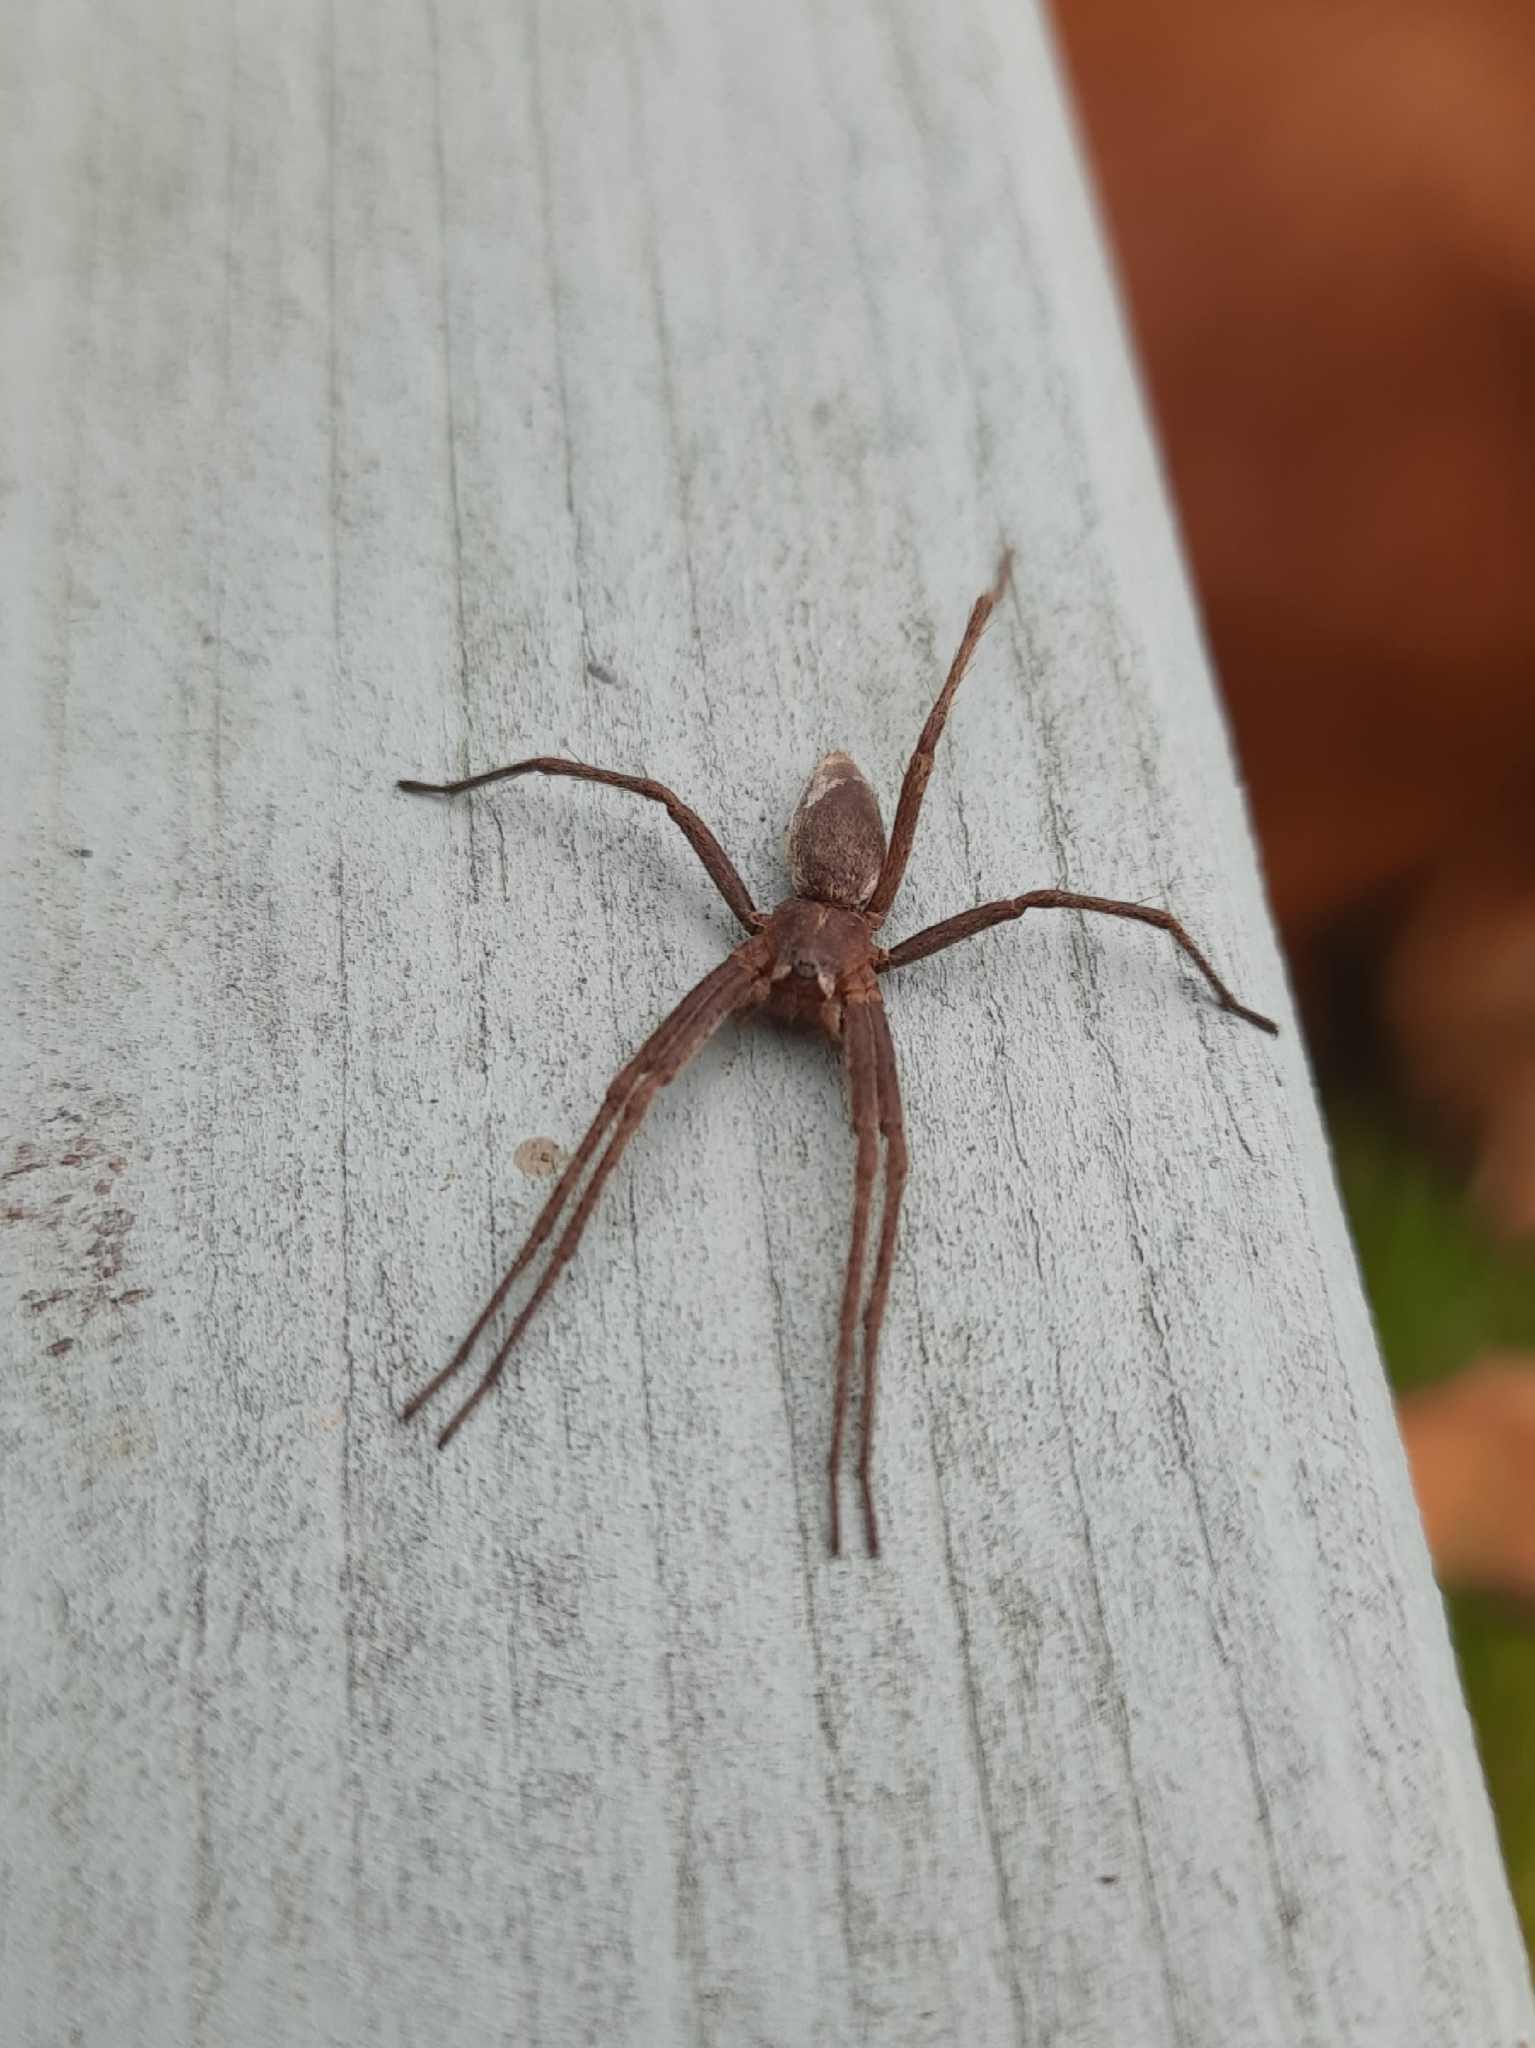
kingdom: Animalia
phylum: Arthropoda
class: Arachnida
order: Araneae
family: Pisauridae
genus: Pisaura
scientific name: Pisaura mirabilis
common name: Tent spider
